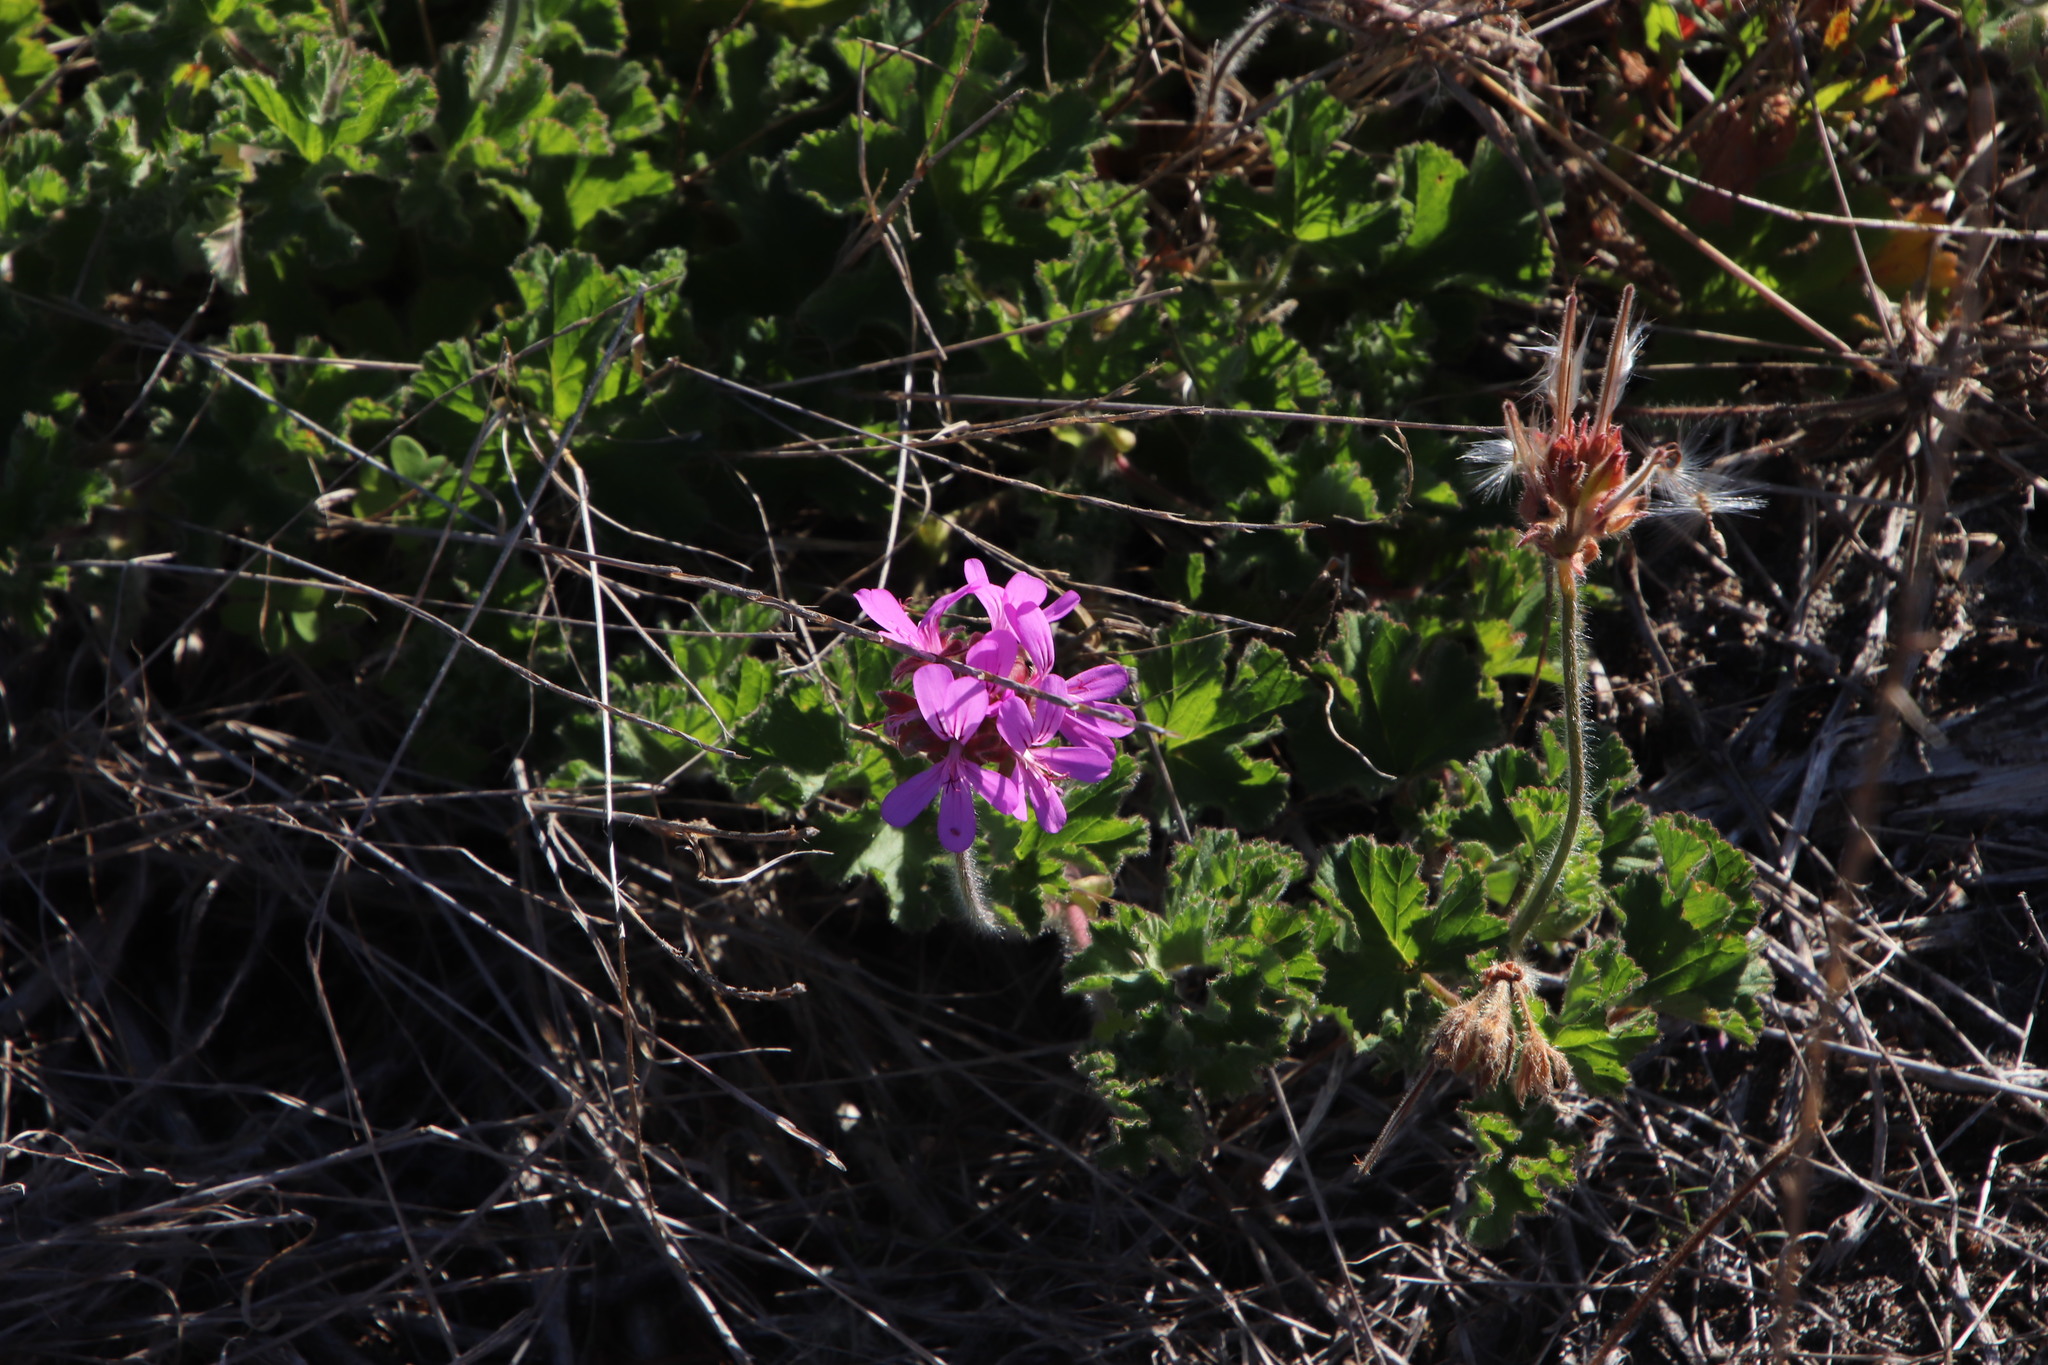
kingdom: Plantae
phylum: Tracheophyta
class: Magnoliopsida
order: Geraniales
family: Geraniaceae
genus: Pelargonium
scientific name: Pelargonium capitatum
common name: Rose scented geranium
